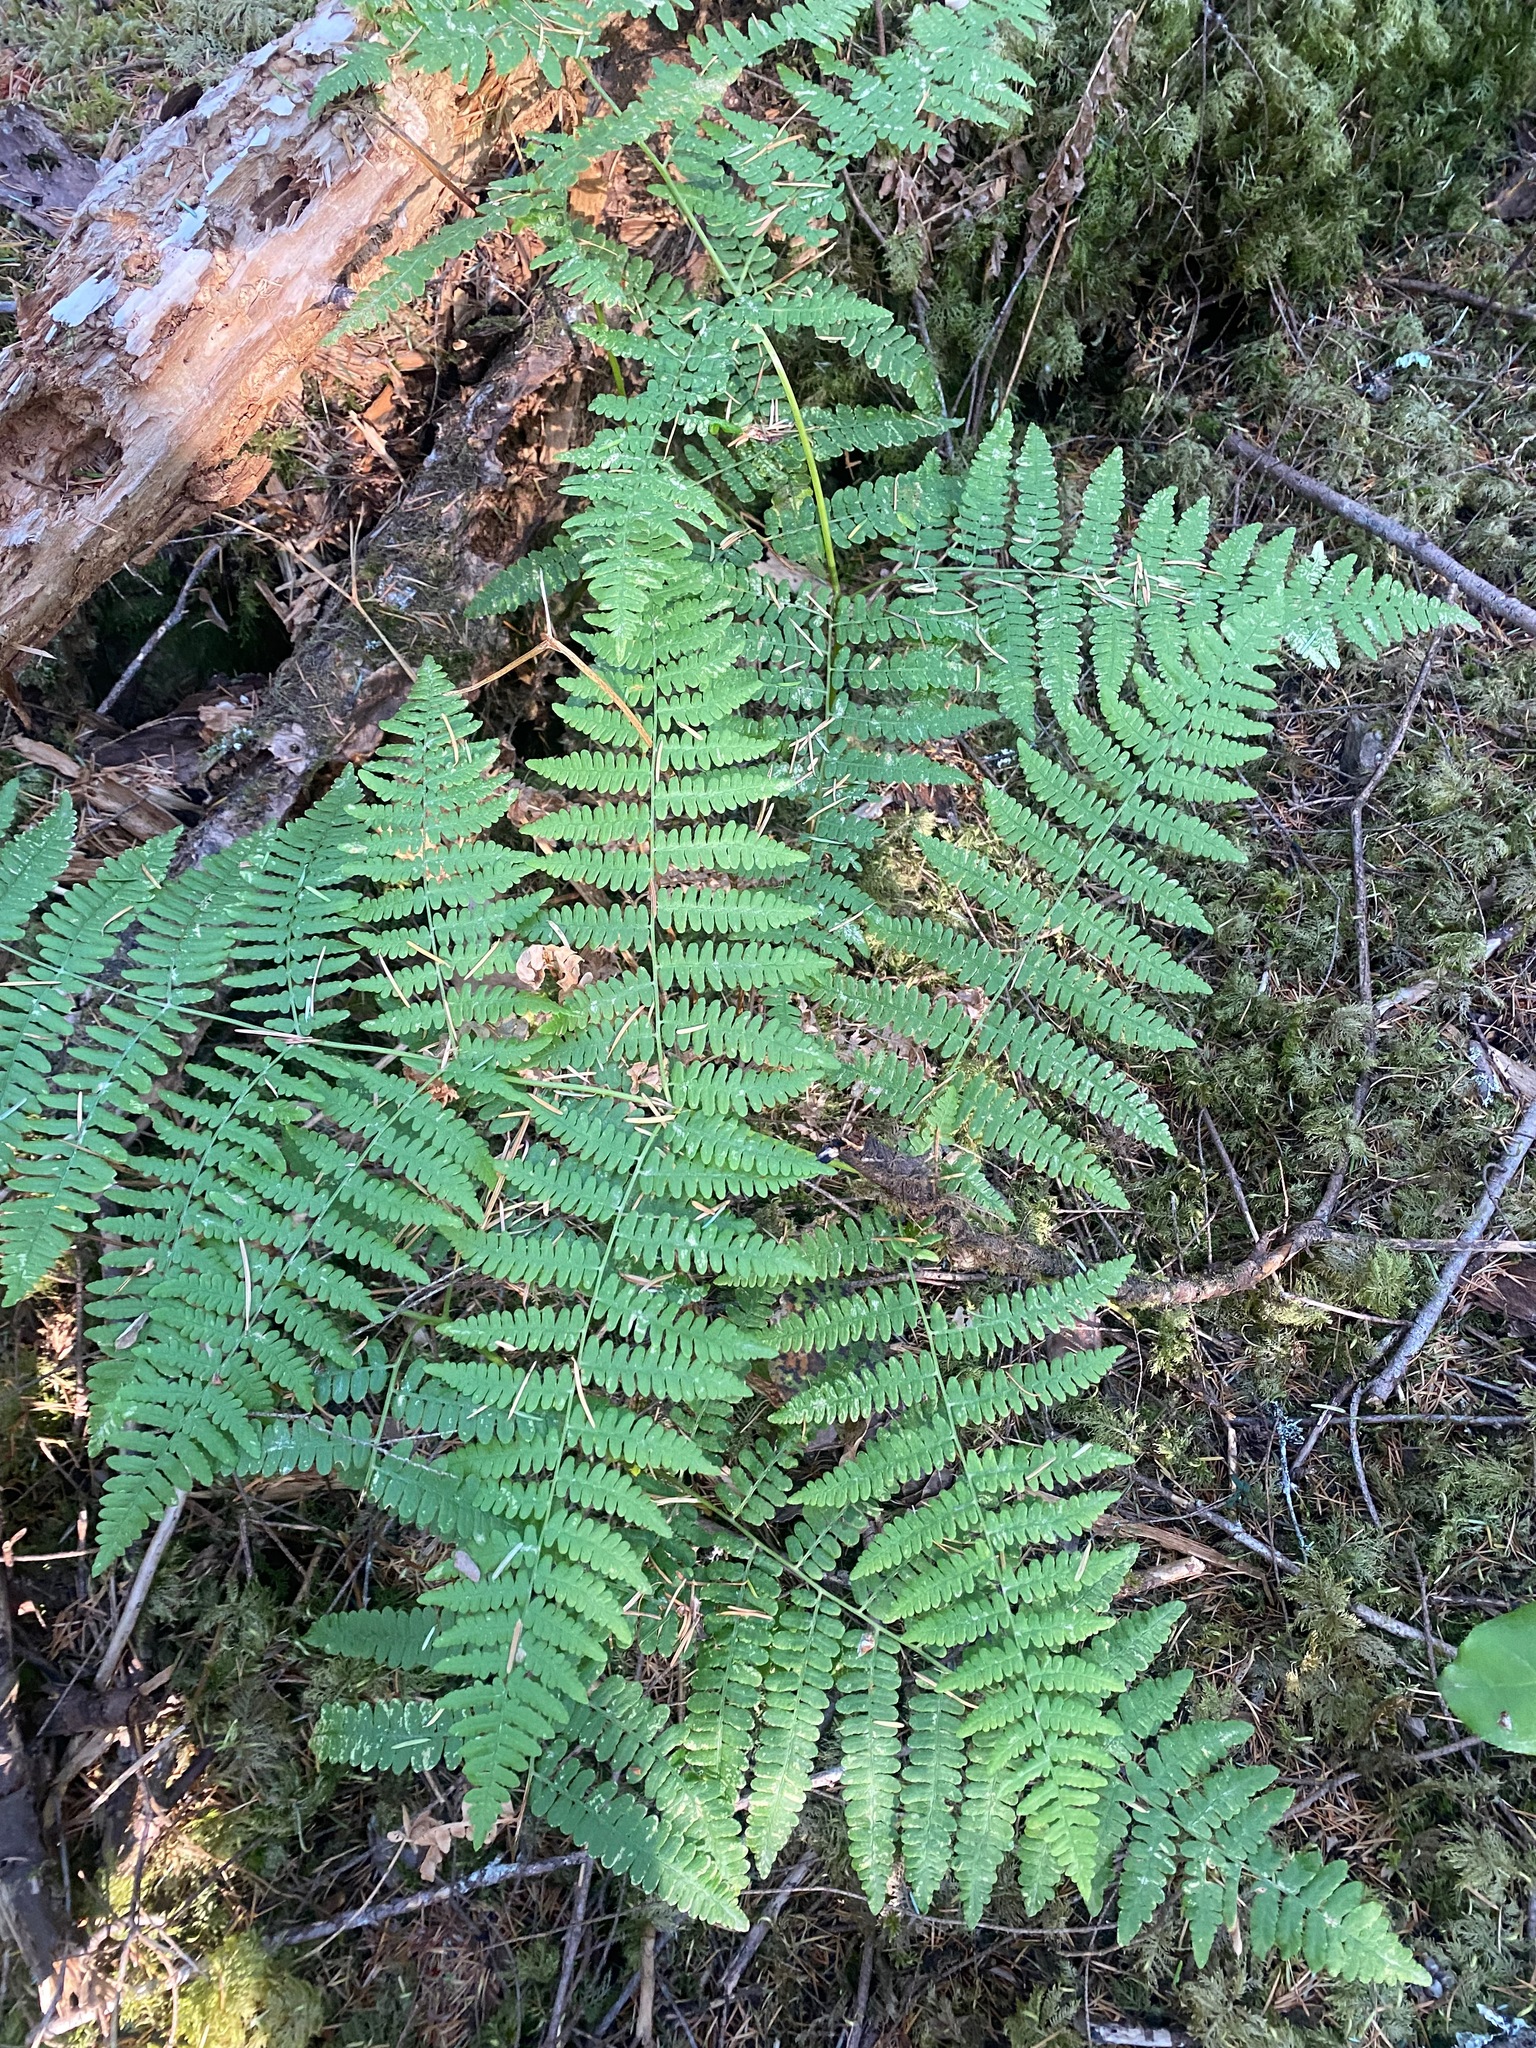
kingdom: Plantae
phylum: Tracheophyta
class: Polypodiopsida
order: Polypodiales
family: Dennstaedtiaceae
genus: Pteridium
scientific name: Pteridium aquilinum
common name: Bracken
